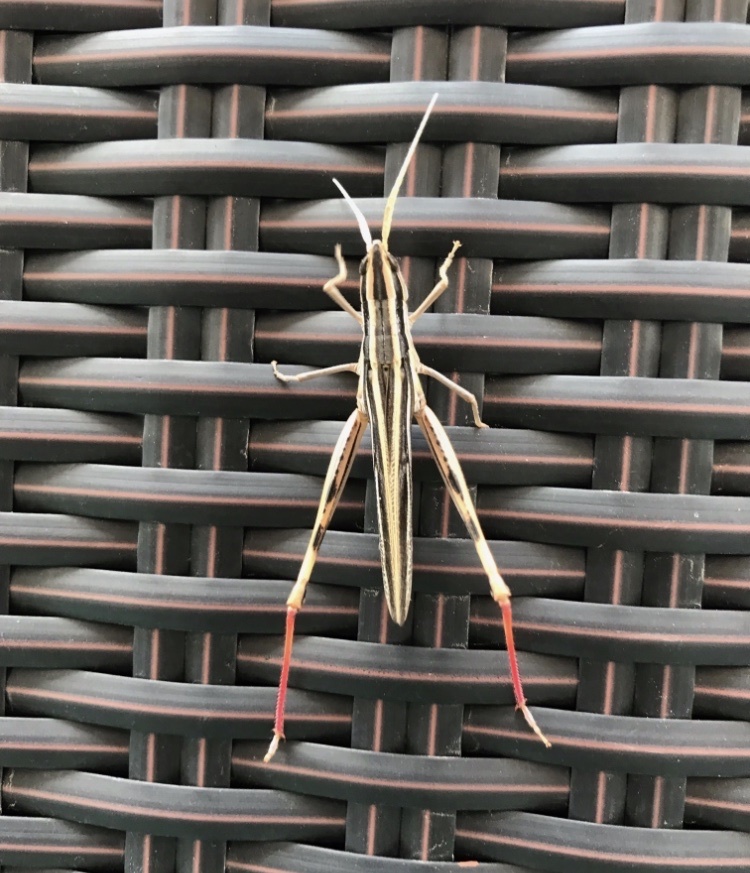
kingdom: Animalia
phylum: Arthropoda
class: Insecta
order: Orthoptera
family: Acrididae
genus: Mermiria
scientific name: Mermiria texana
